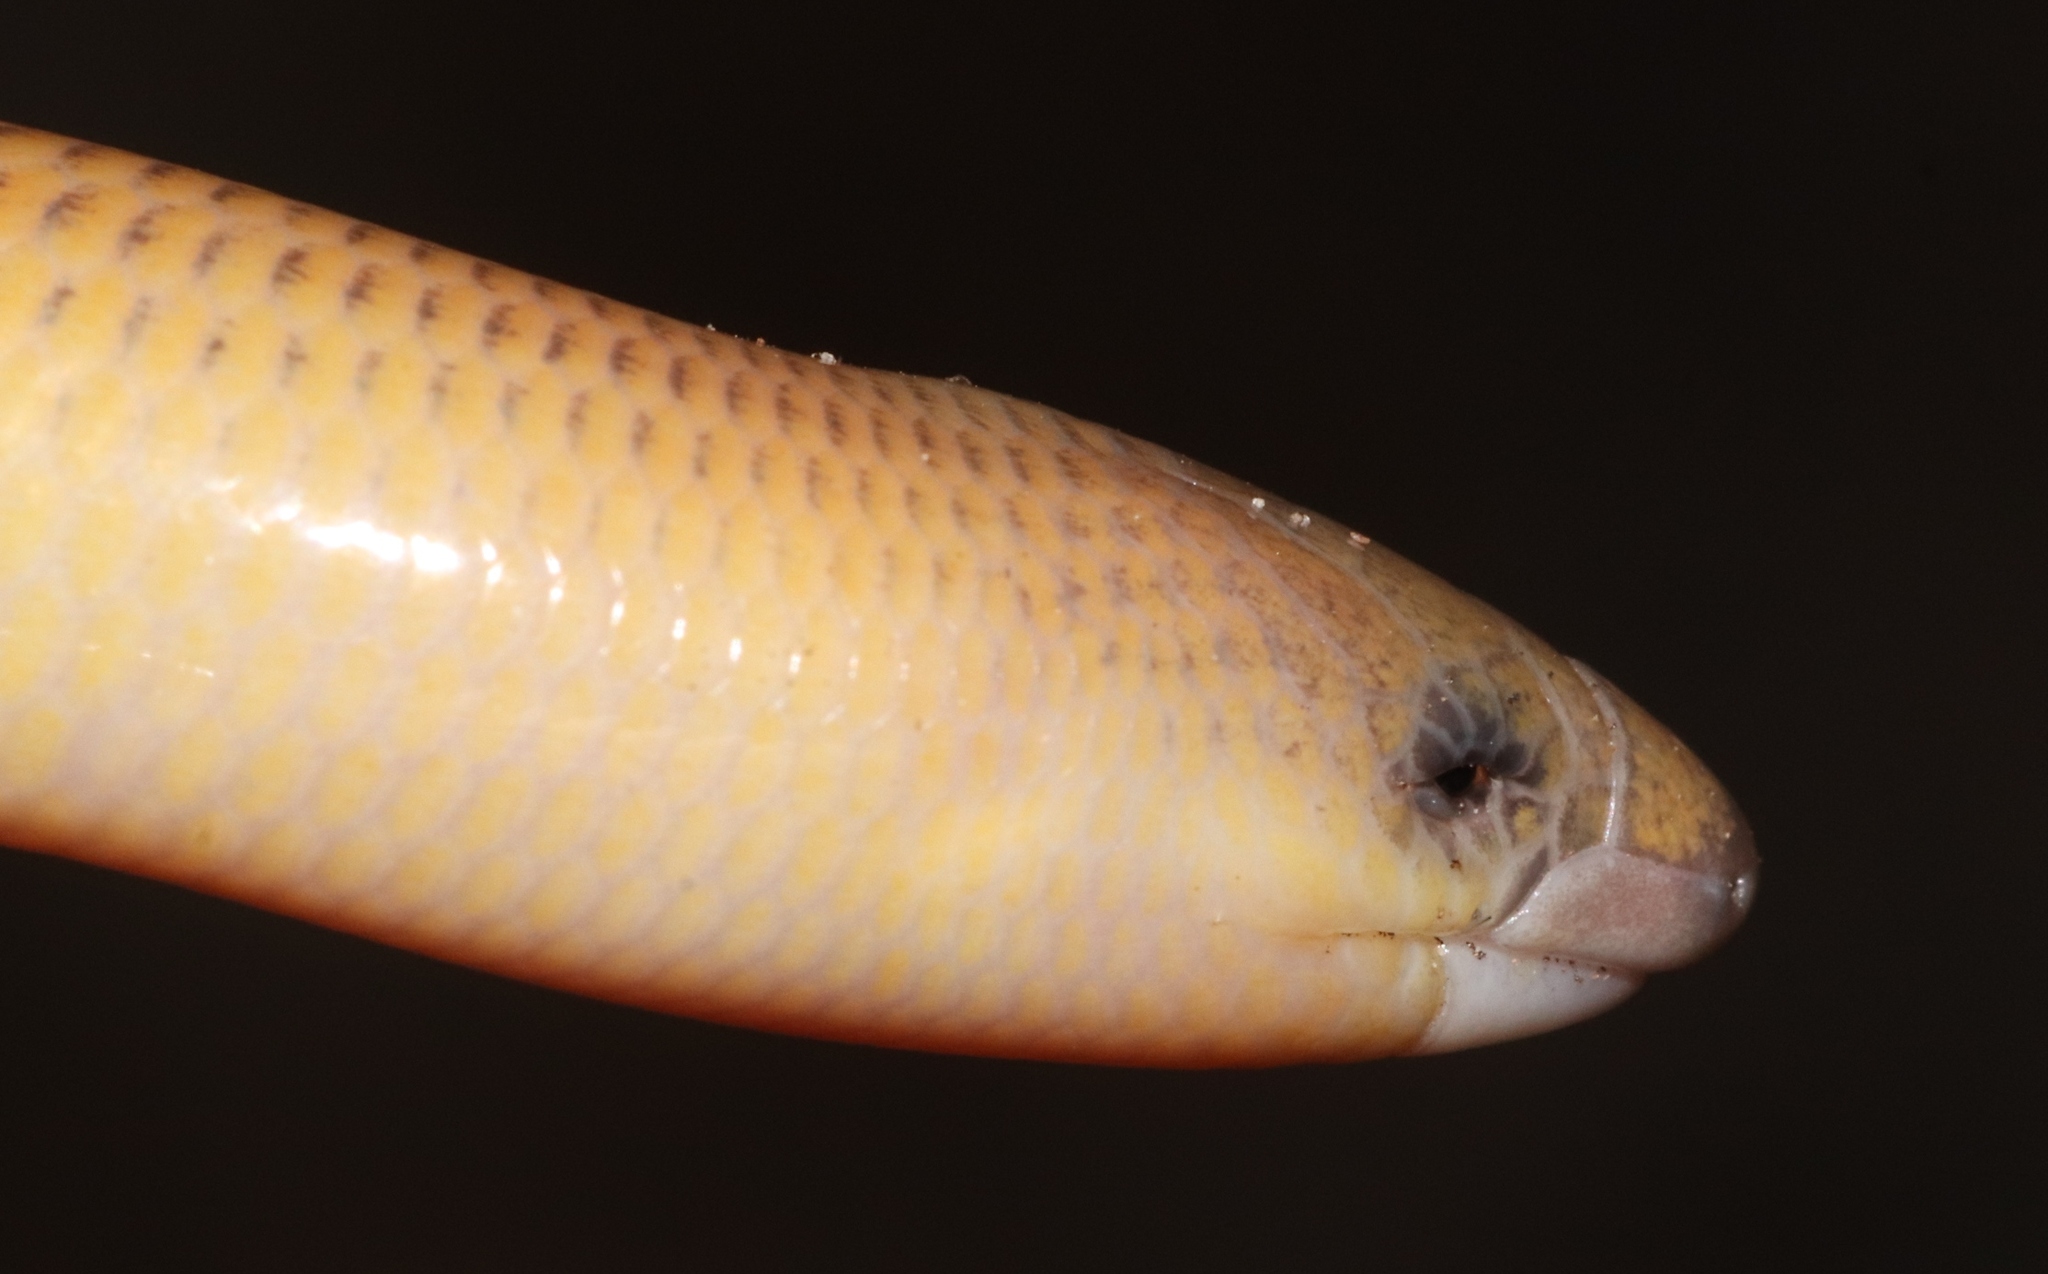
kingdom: Animalia
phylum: Chordata
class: Squamata
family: Scincidae
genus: Acontias
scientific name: Acontias meleagris
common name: Cape legless skink
